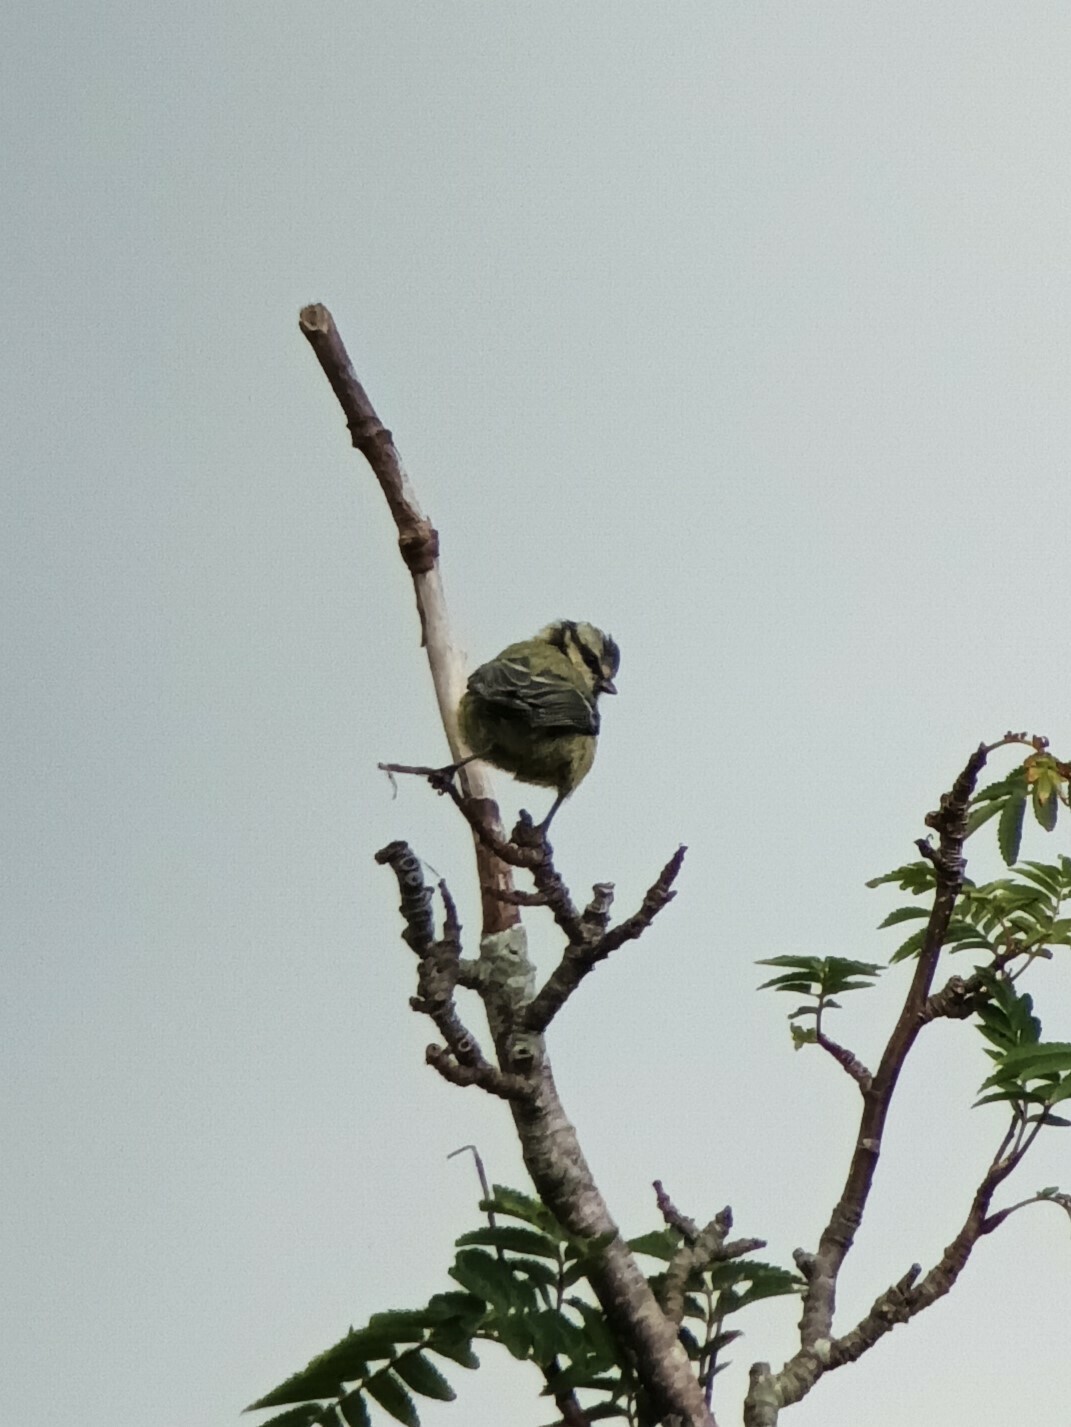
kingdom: Animalia
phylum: Chordata
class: Aves
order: Passeriformes
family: Paridae
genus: Cyanistes
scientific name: Cyanistes caeruleus
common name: Eurasian blue tit
